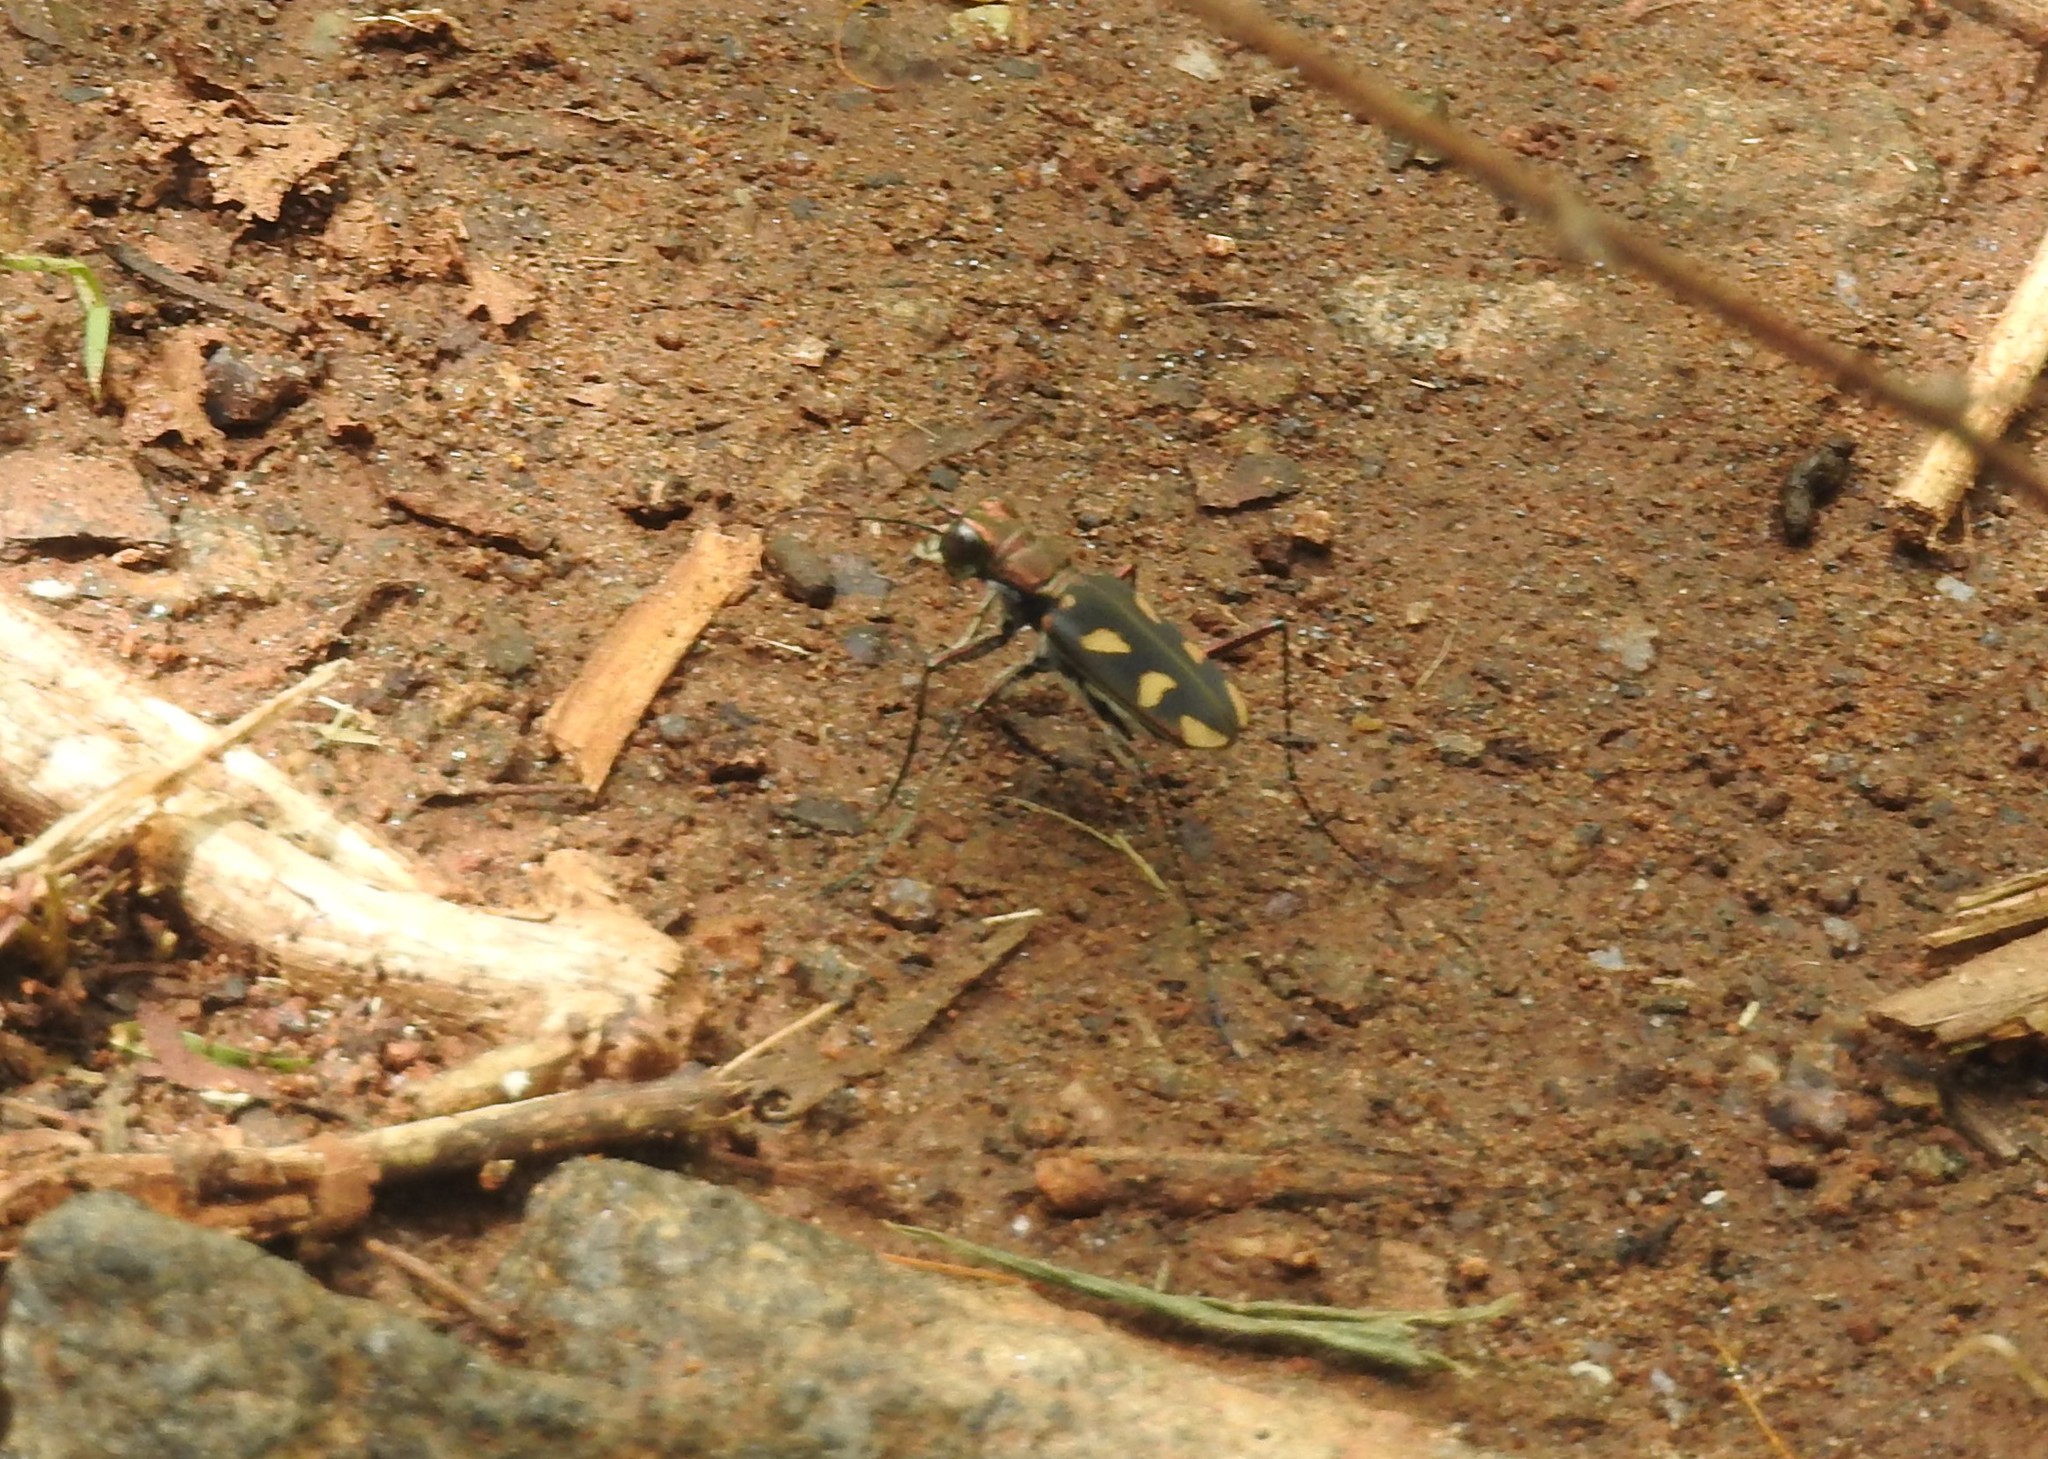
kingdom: Animalia
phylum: Arthropoda
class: Insecta
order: Coleoptera
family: Carabidae
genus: Cicindela
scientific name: Cicindela calligramma
